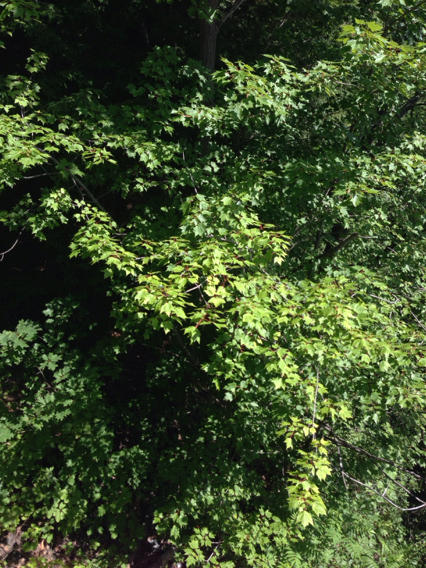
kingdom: Plantae
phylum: Tracheophyta
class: Magnoliopsida
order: Sapindales
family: Sapindaceae
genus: Acer
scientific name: Acer rubrum
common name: Red maple
